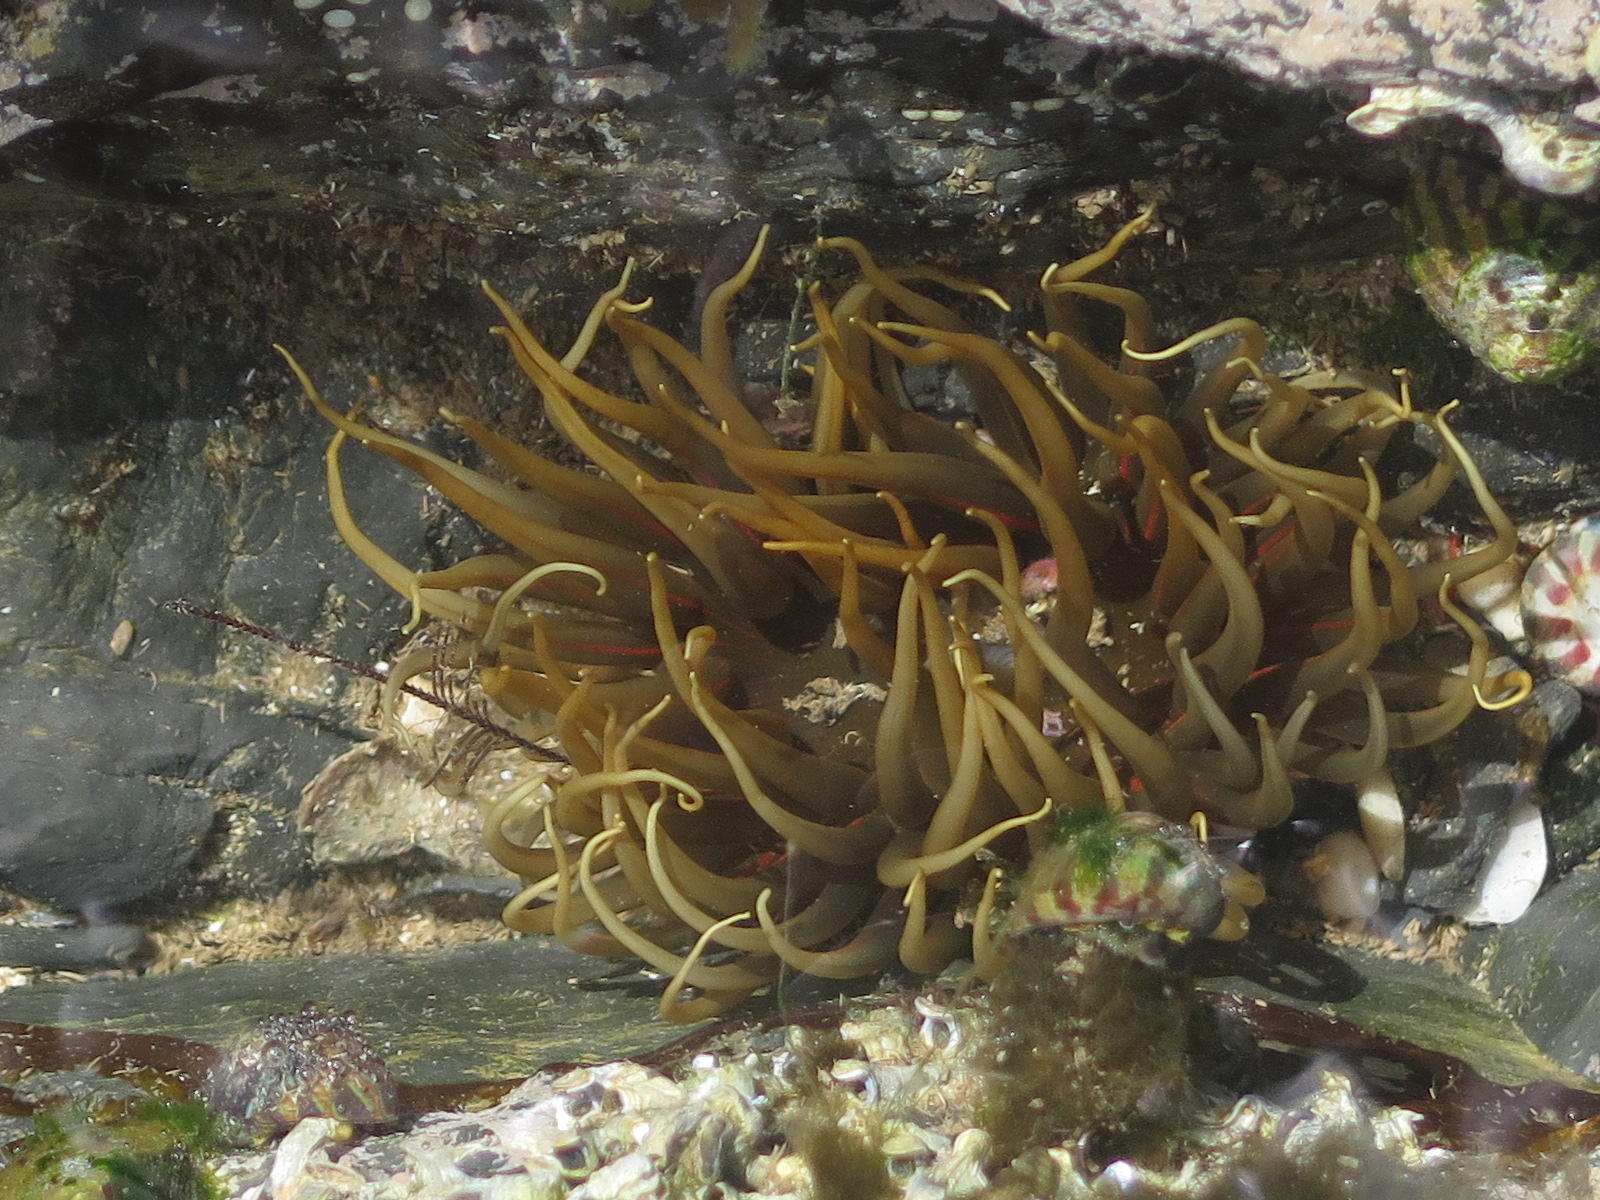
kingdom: Animalia
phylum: Cnidaria
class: Anthozoa
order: Actiniaria
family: Actiniidae
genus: Anthopleura
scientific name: Anthopleura michaelseni
